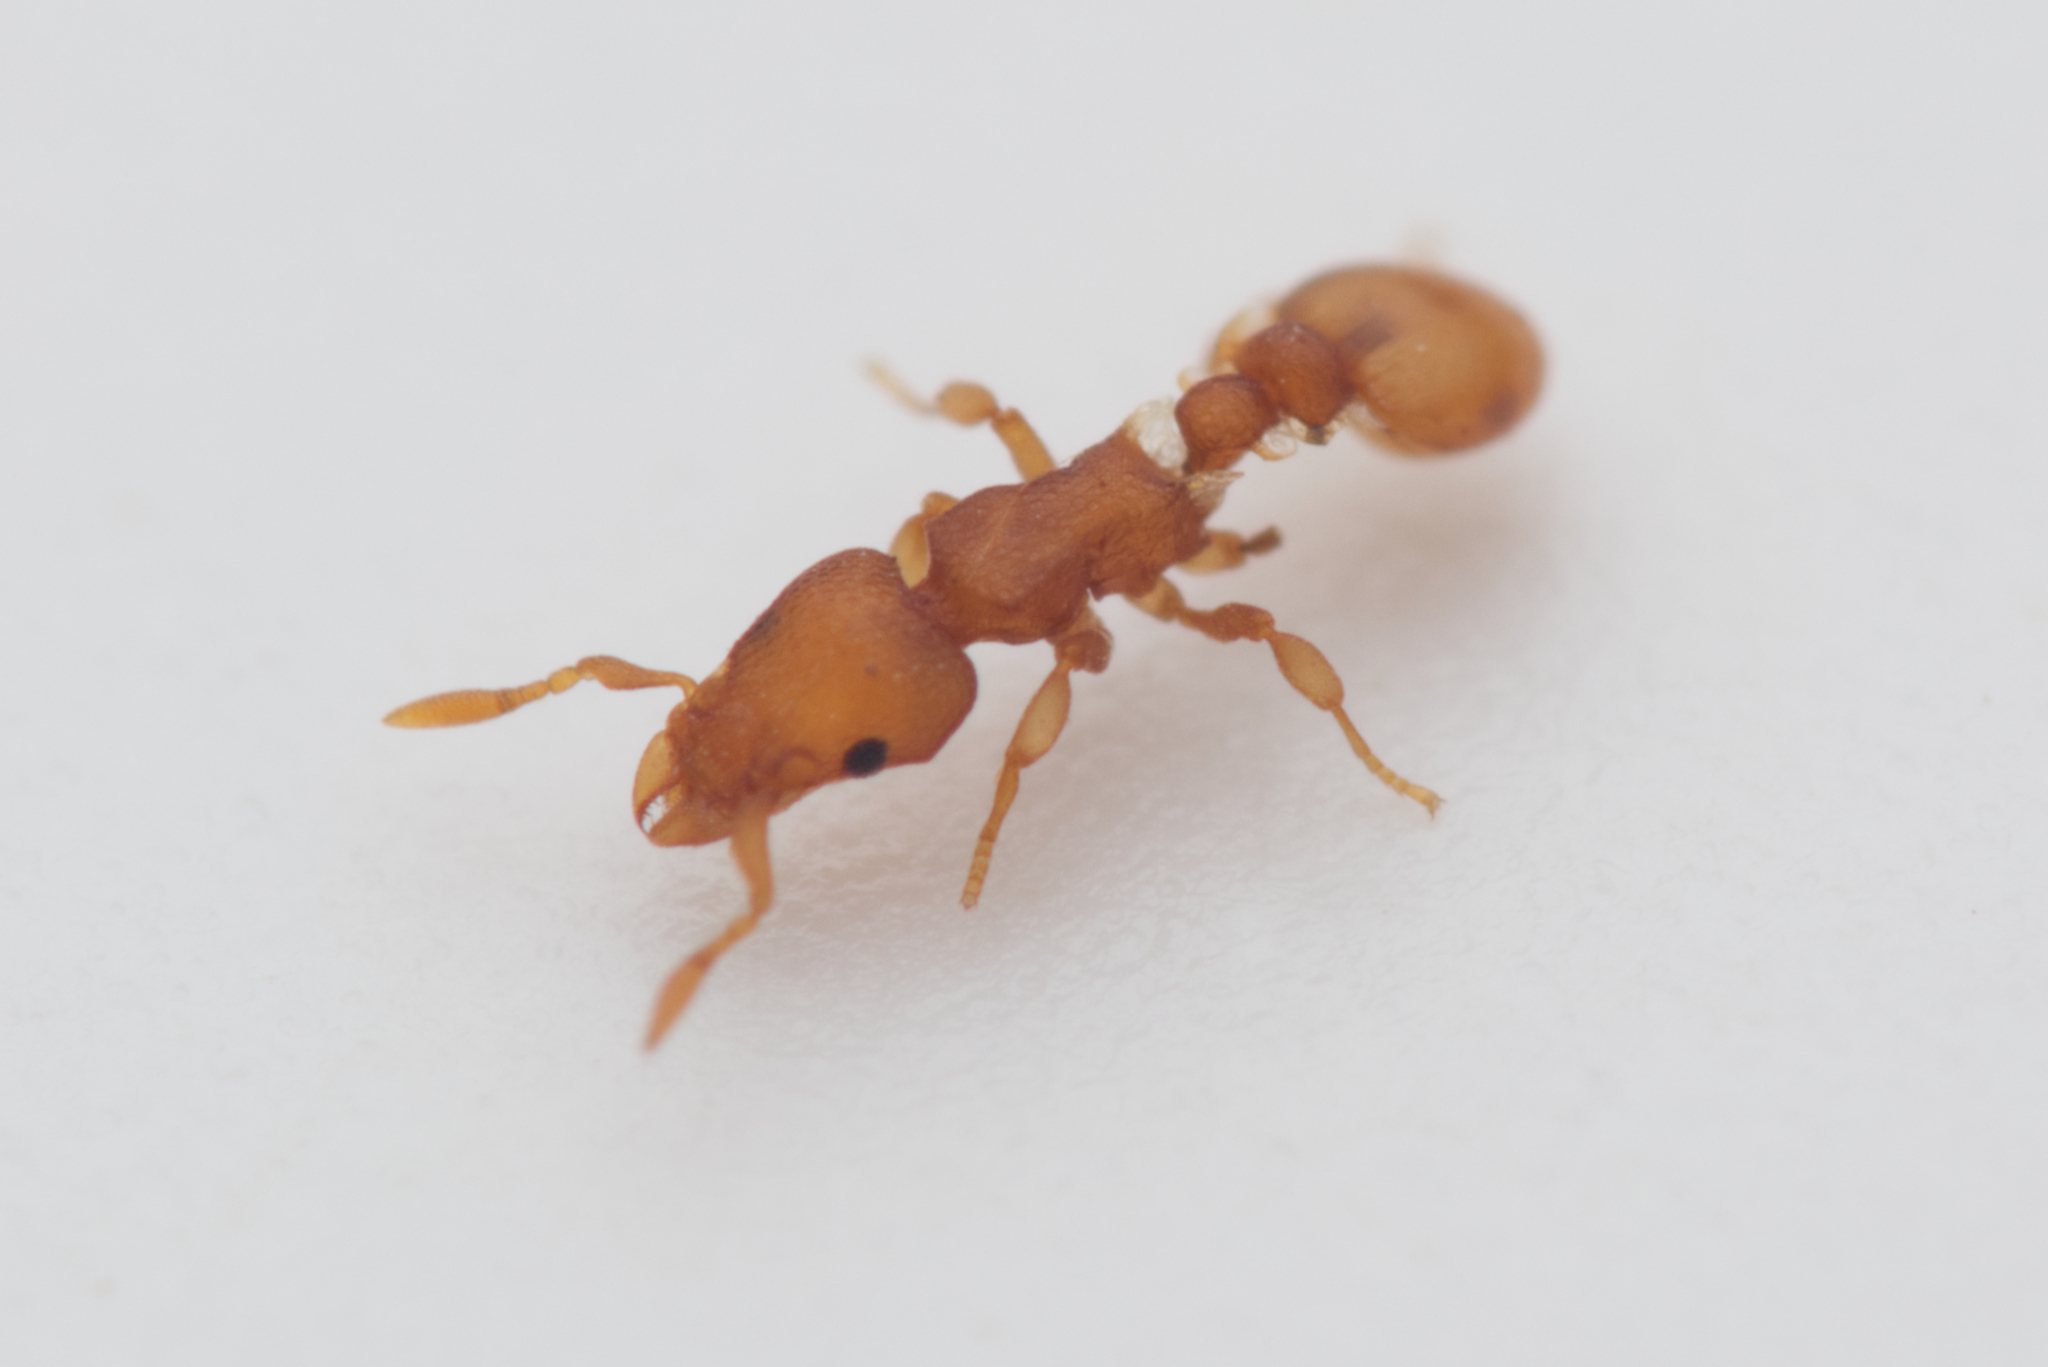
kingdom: Animalia
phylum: Arthropoda
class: Insecta
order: Hymenoptera
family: Formicidae
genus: Colobostruma
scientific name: Colobostruma
